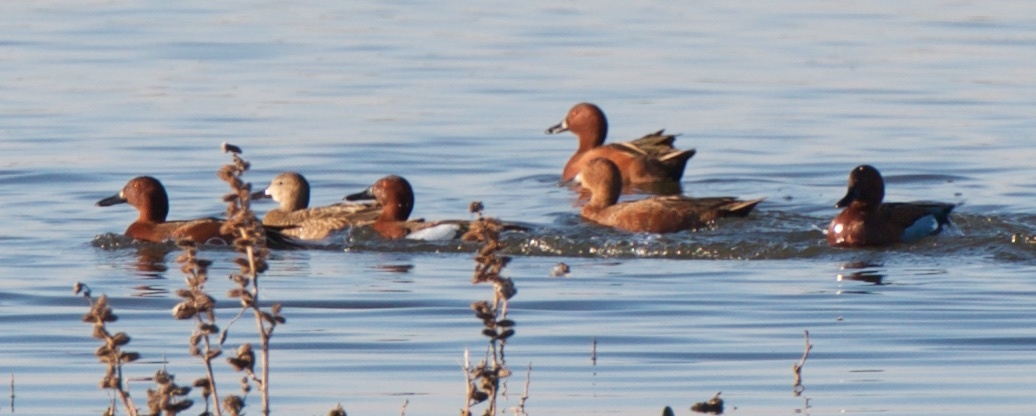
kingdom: Animalia
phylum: Chordata
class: Aves
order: Anseriformes
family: Anatidae
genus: Spatula
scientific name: Spatula cyanoptera
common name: Cinnamon teal
